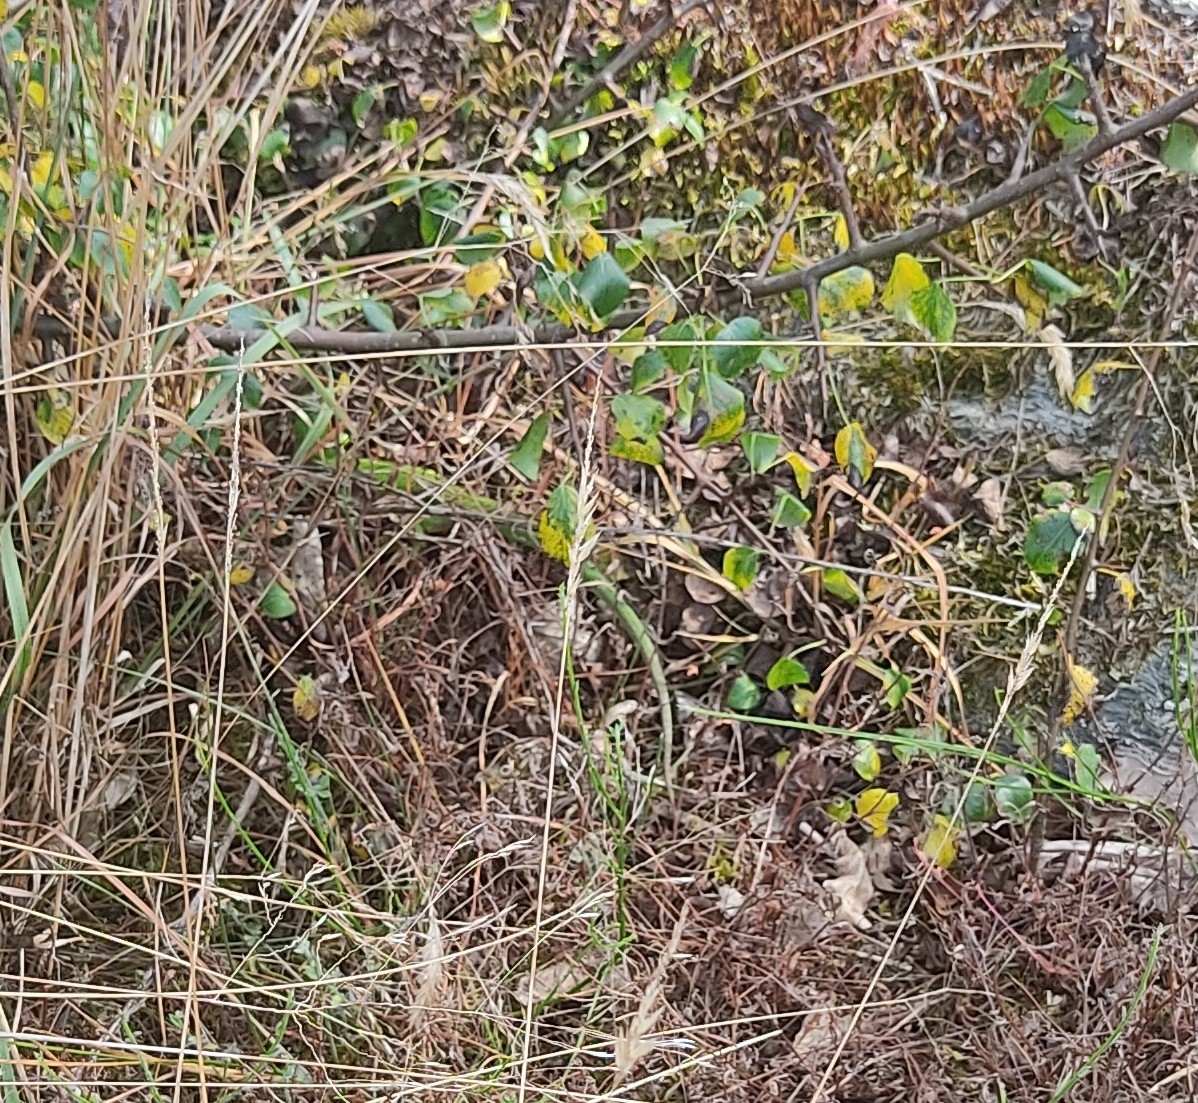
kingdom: Animalia
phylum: Chordata
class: Squamata
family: Lacertidae
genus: Lacerta
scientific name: Lacerta bilineata
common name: Western green lizard
